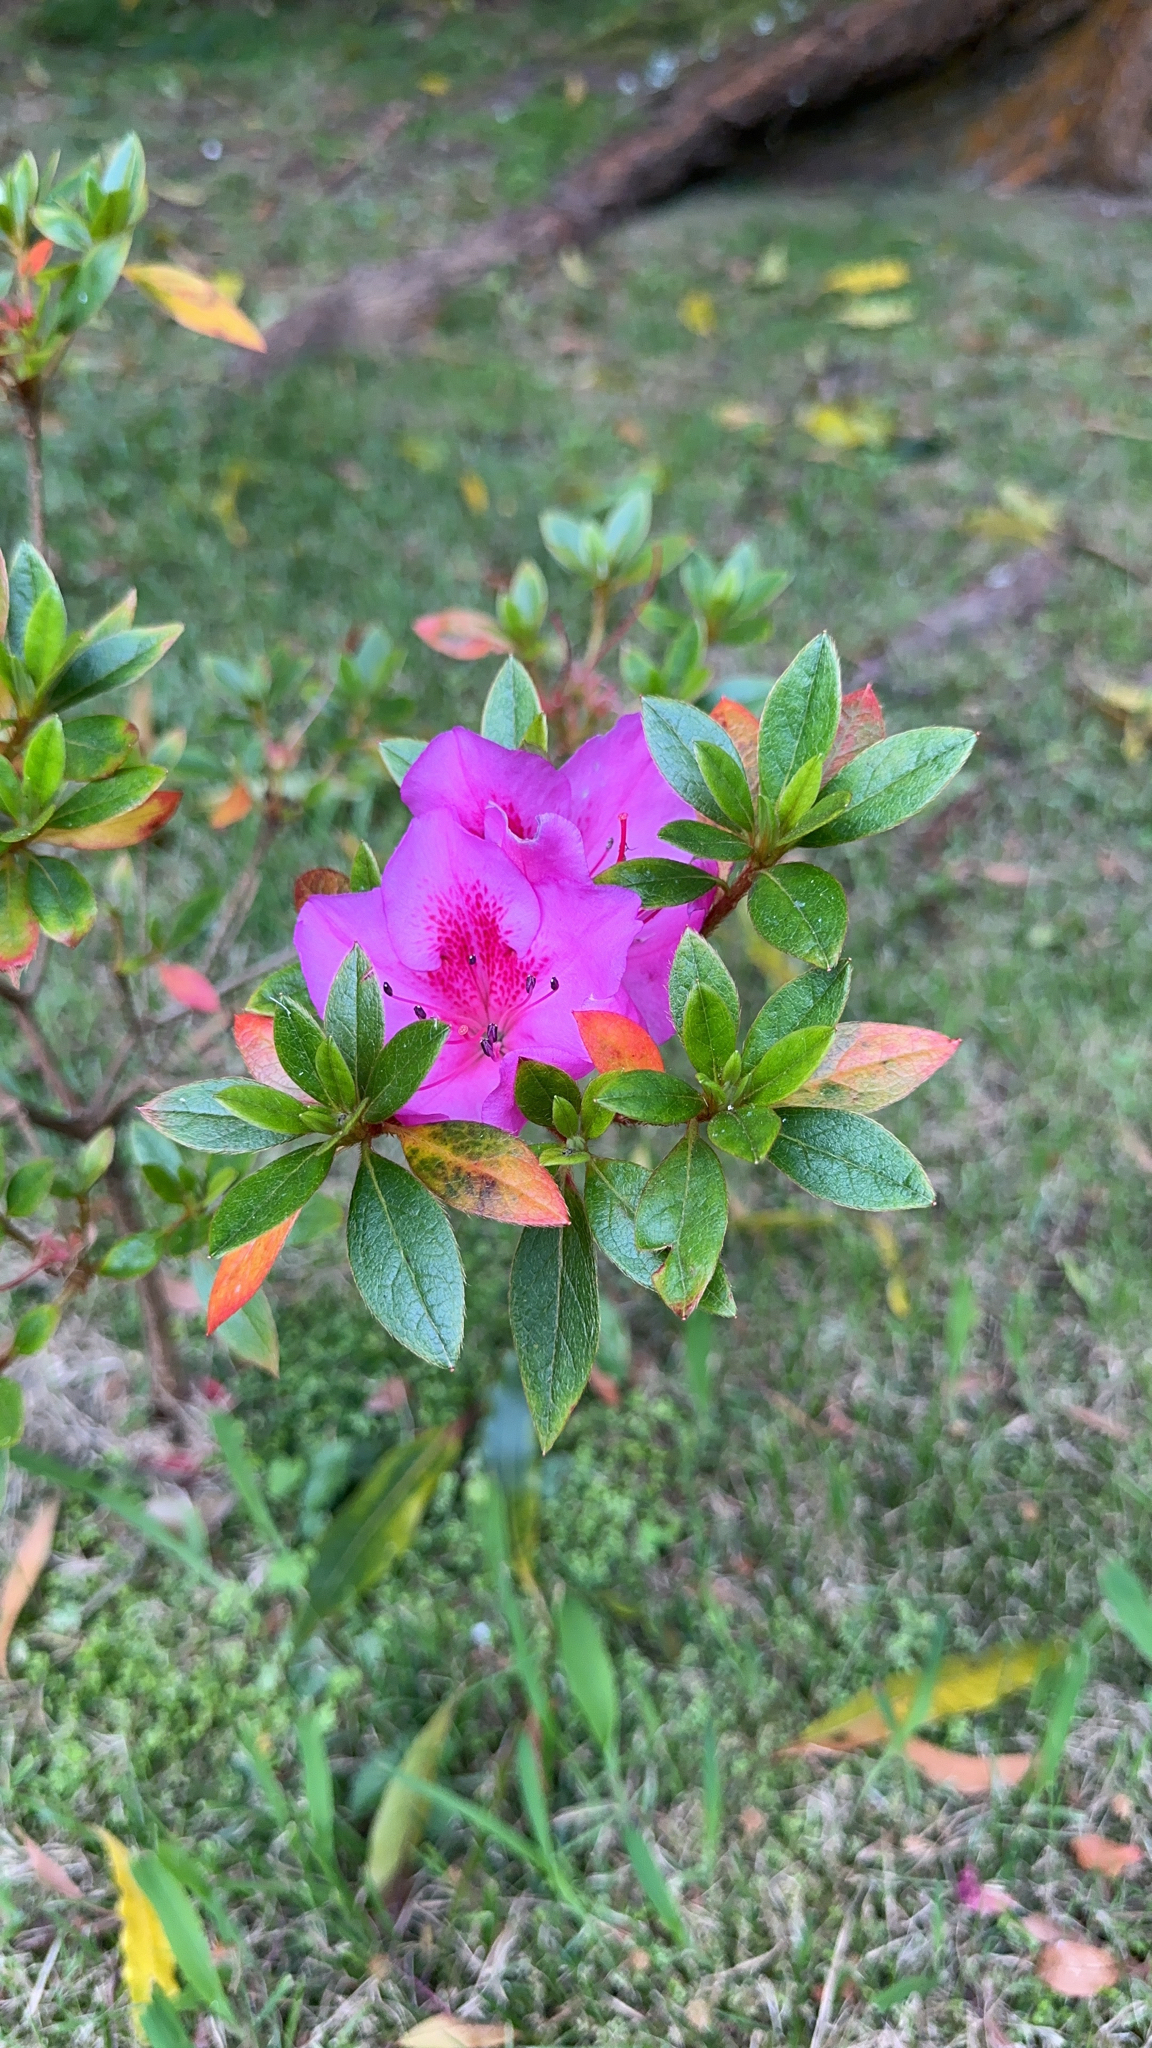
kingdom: Plantae
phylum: Tracheophyta
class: Magnoliopsida
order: Ericales
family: Ericaceae
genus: Rhododendron
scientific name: Rhododendron indicum
